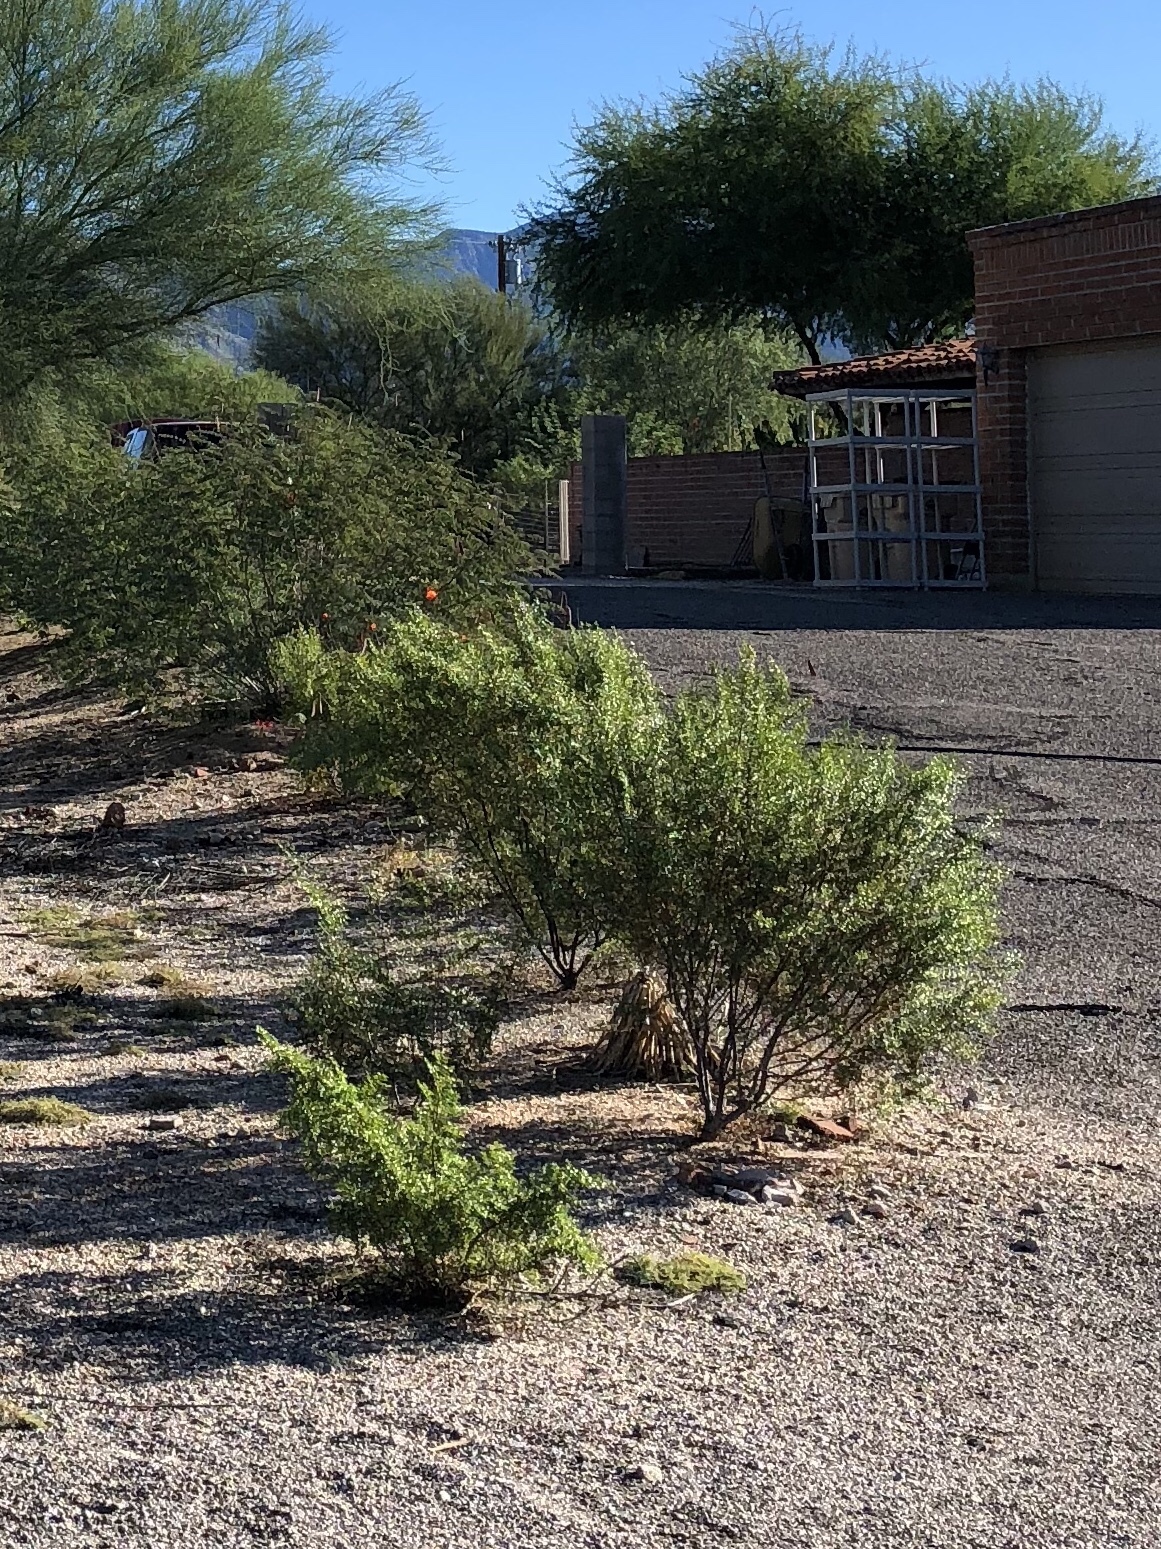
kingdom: Plantae
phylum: Tracheophyta
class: Magnoliopsida
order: Zygophyllales
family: Zygophyllaceae
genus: Larrea
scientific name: Larrea tridentata
